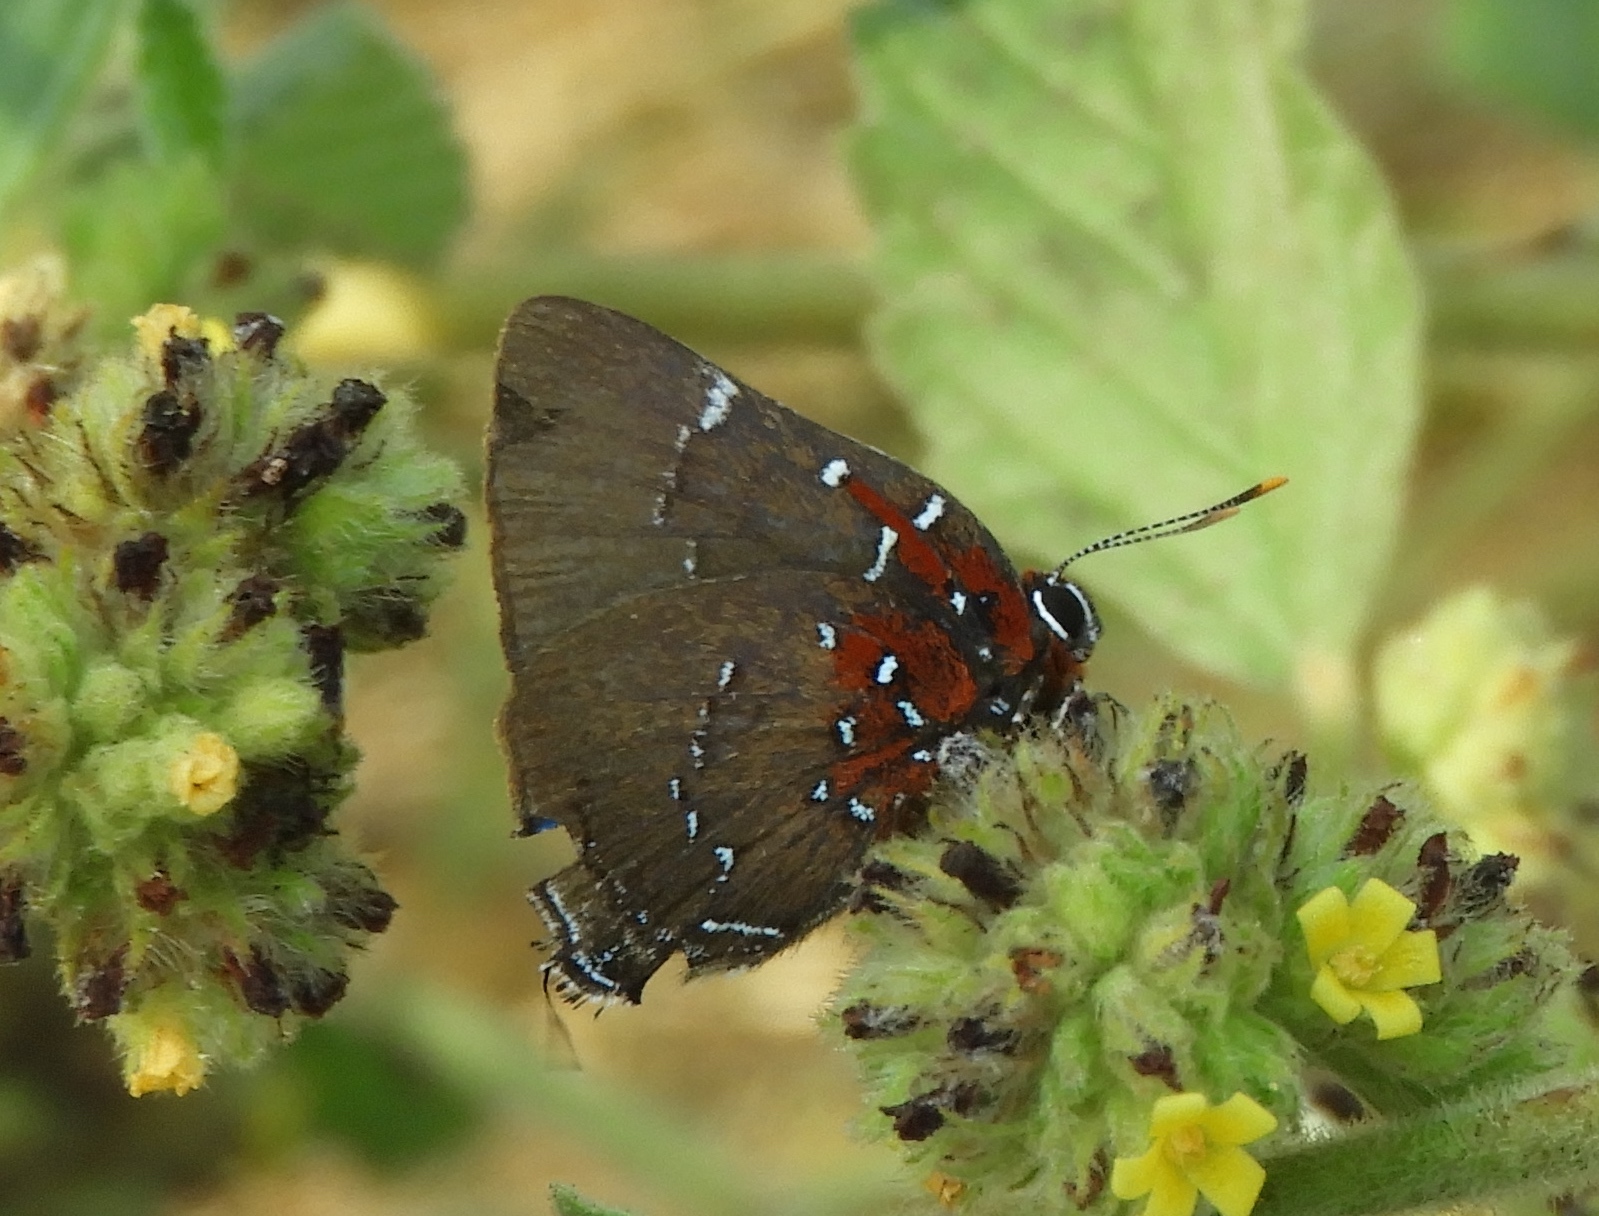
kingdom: Animalia
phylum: Arthropoda
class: Insecta
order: Lepidoptera
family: Lycaenidae
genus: Atlides
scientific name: Atlides Brangas neora
